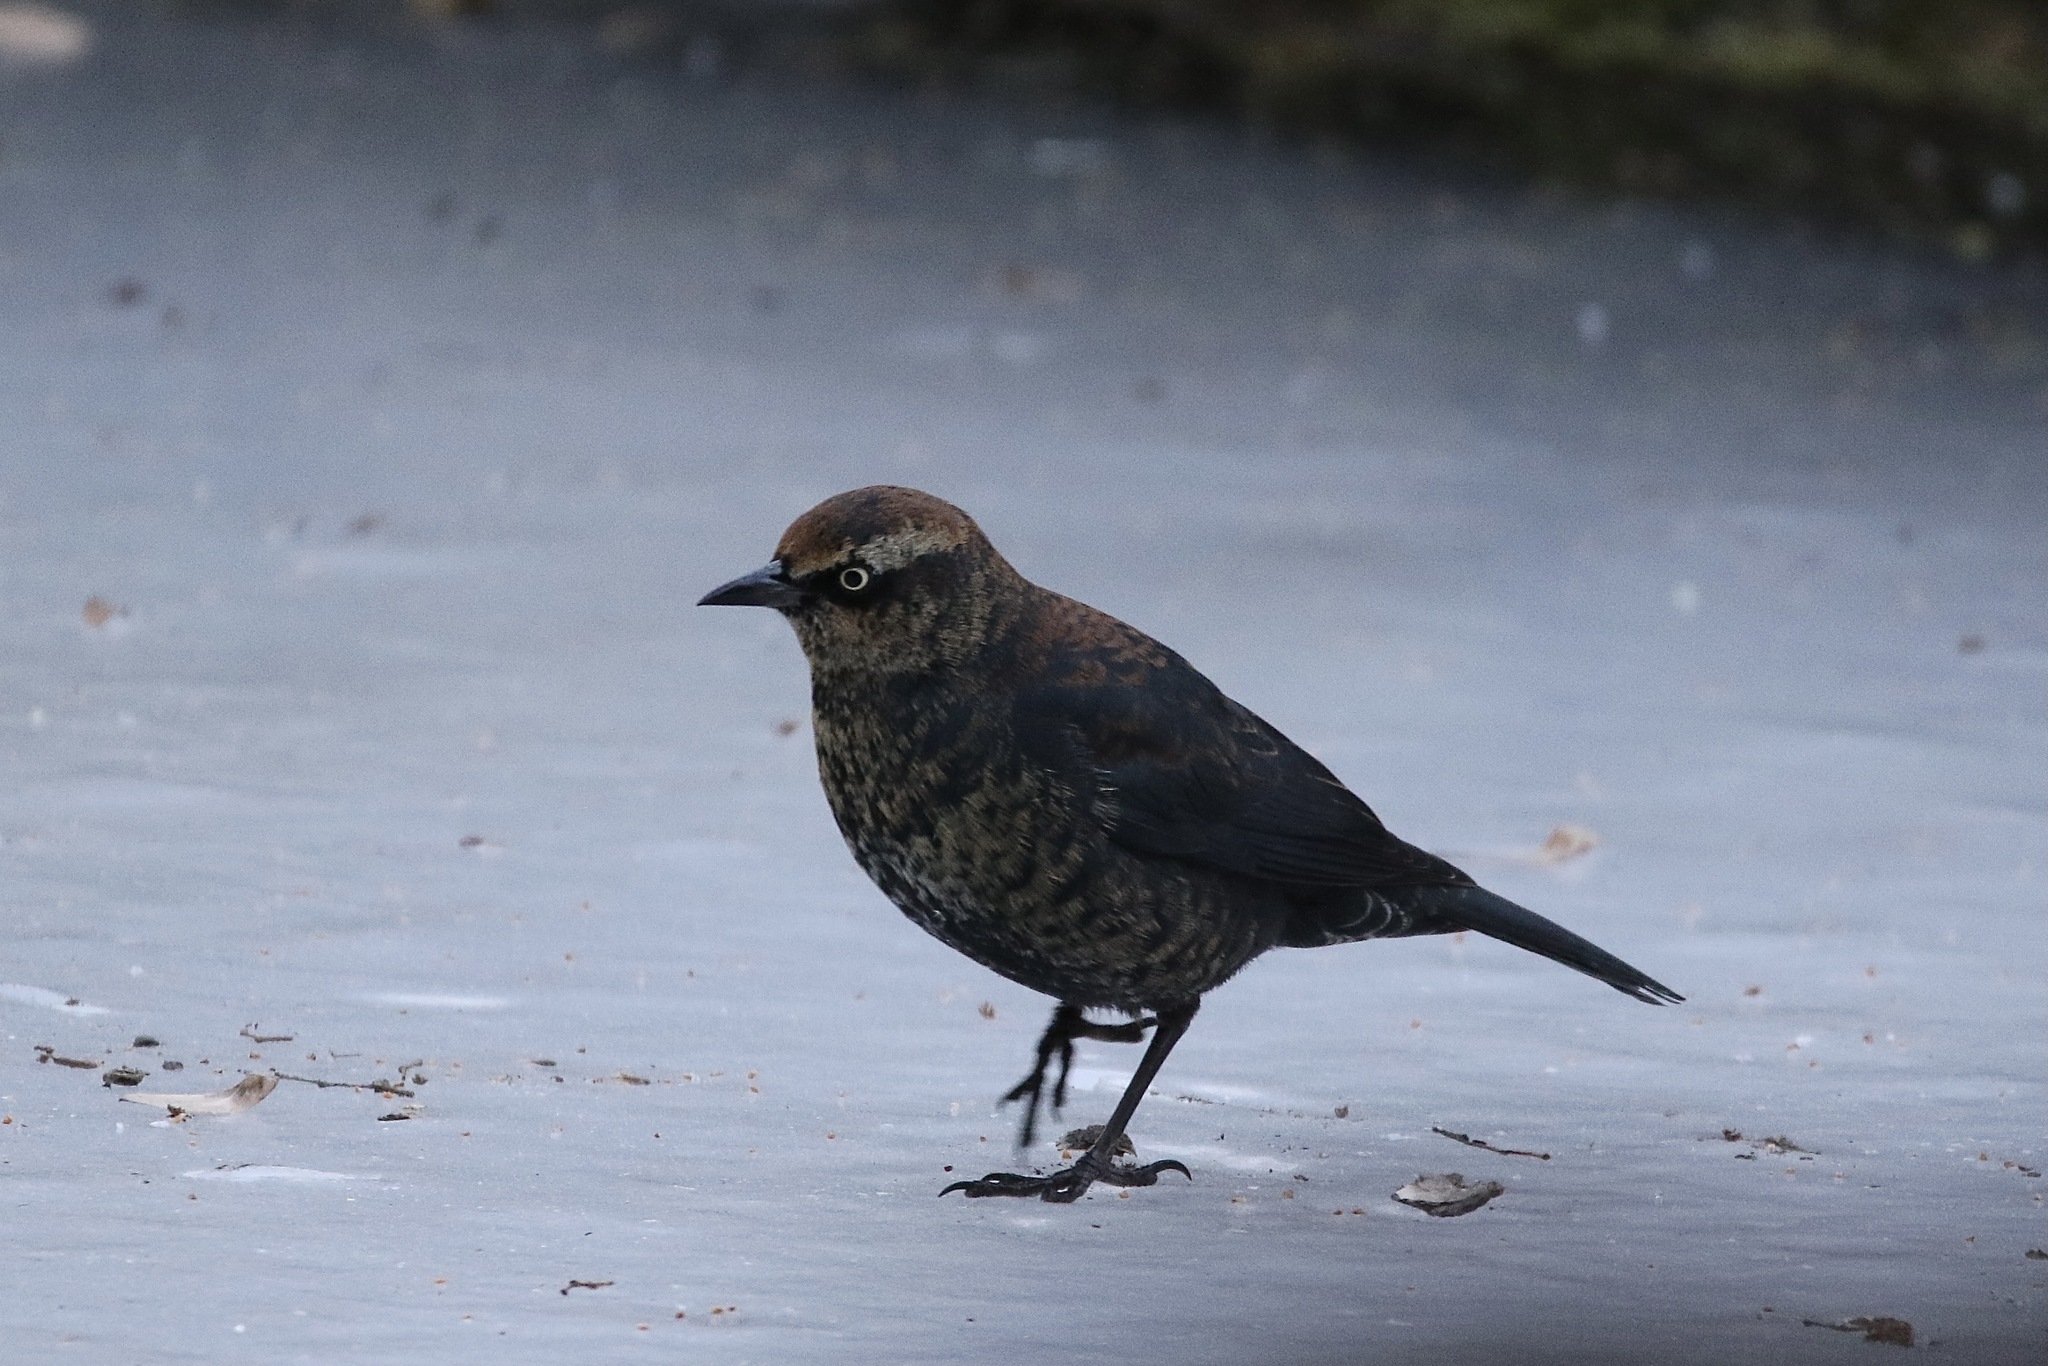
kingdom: Animalia
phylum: Chordata
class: Aves
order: Passeriformes
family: Icteridae
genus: Euphagus
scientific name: Euphagus carolinus
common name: Rusty blackbird
